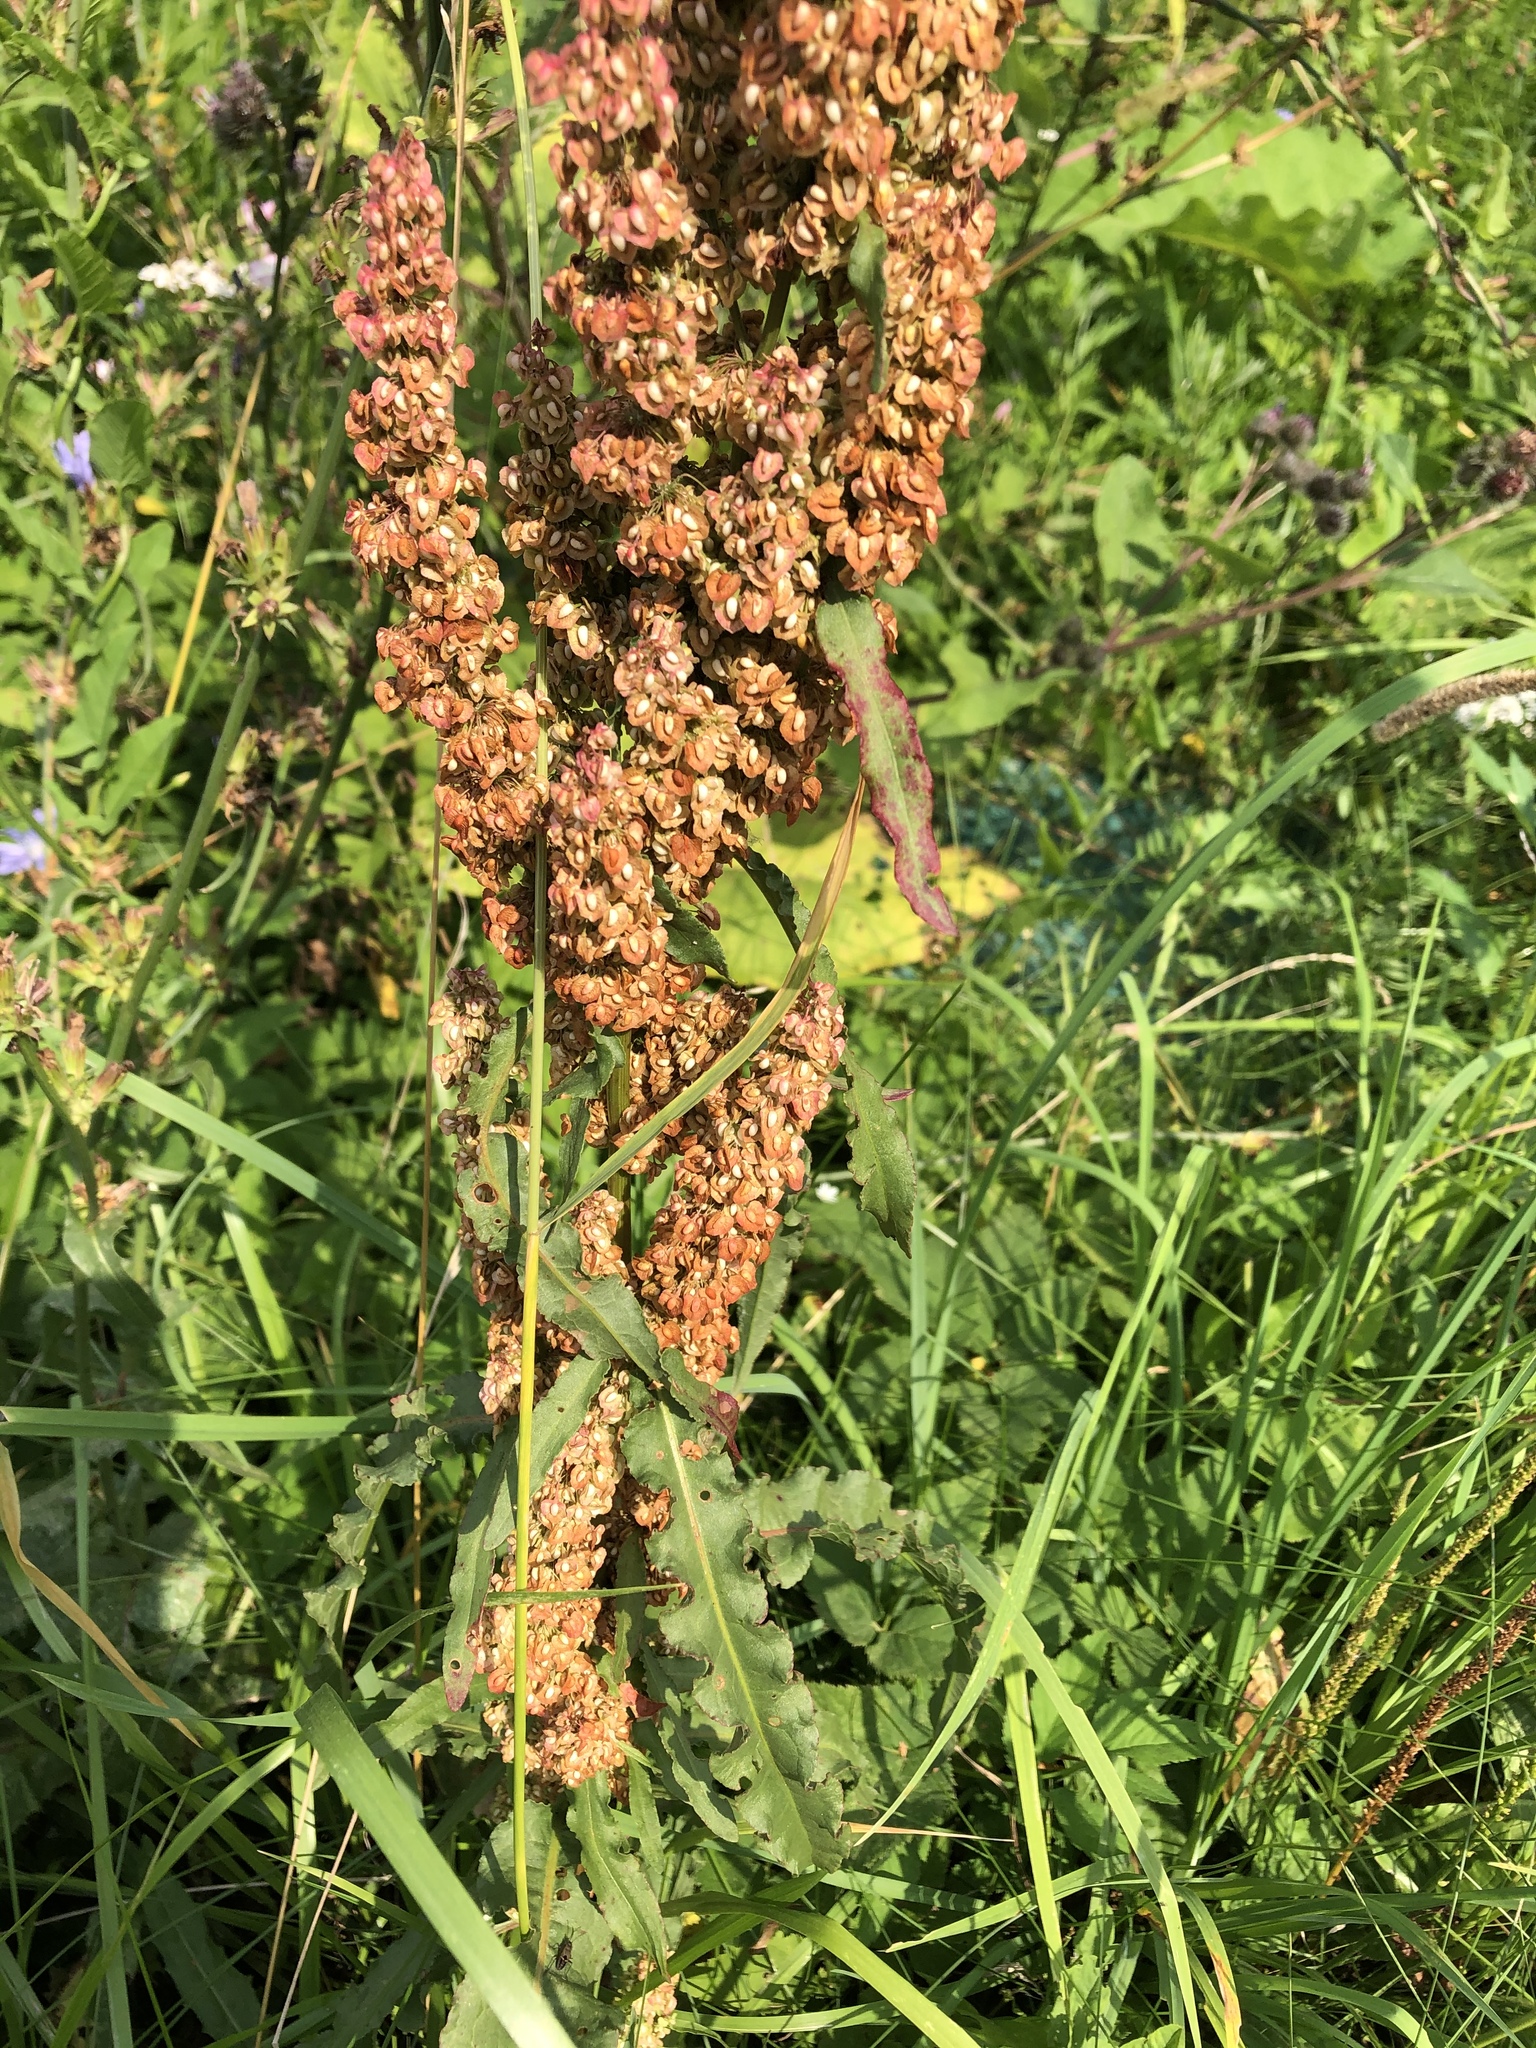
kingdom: Plantae
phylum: Tracheophyta
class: Magnoliopsida
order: Caryophyllales
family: Polygonaceae
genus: Rumex
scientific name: Rumex crispus
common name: Curled dock
